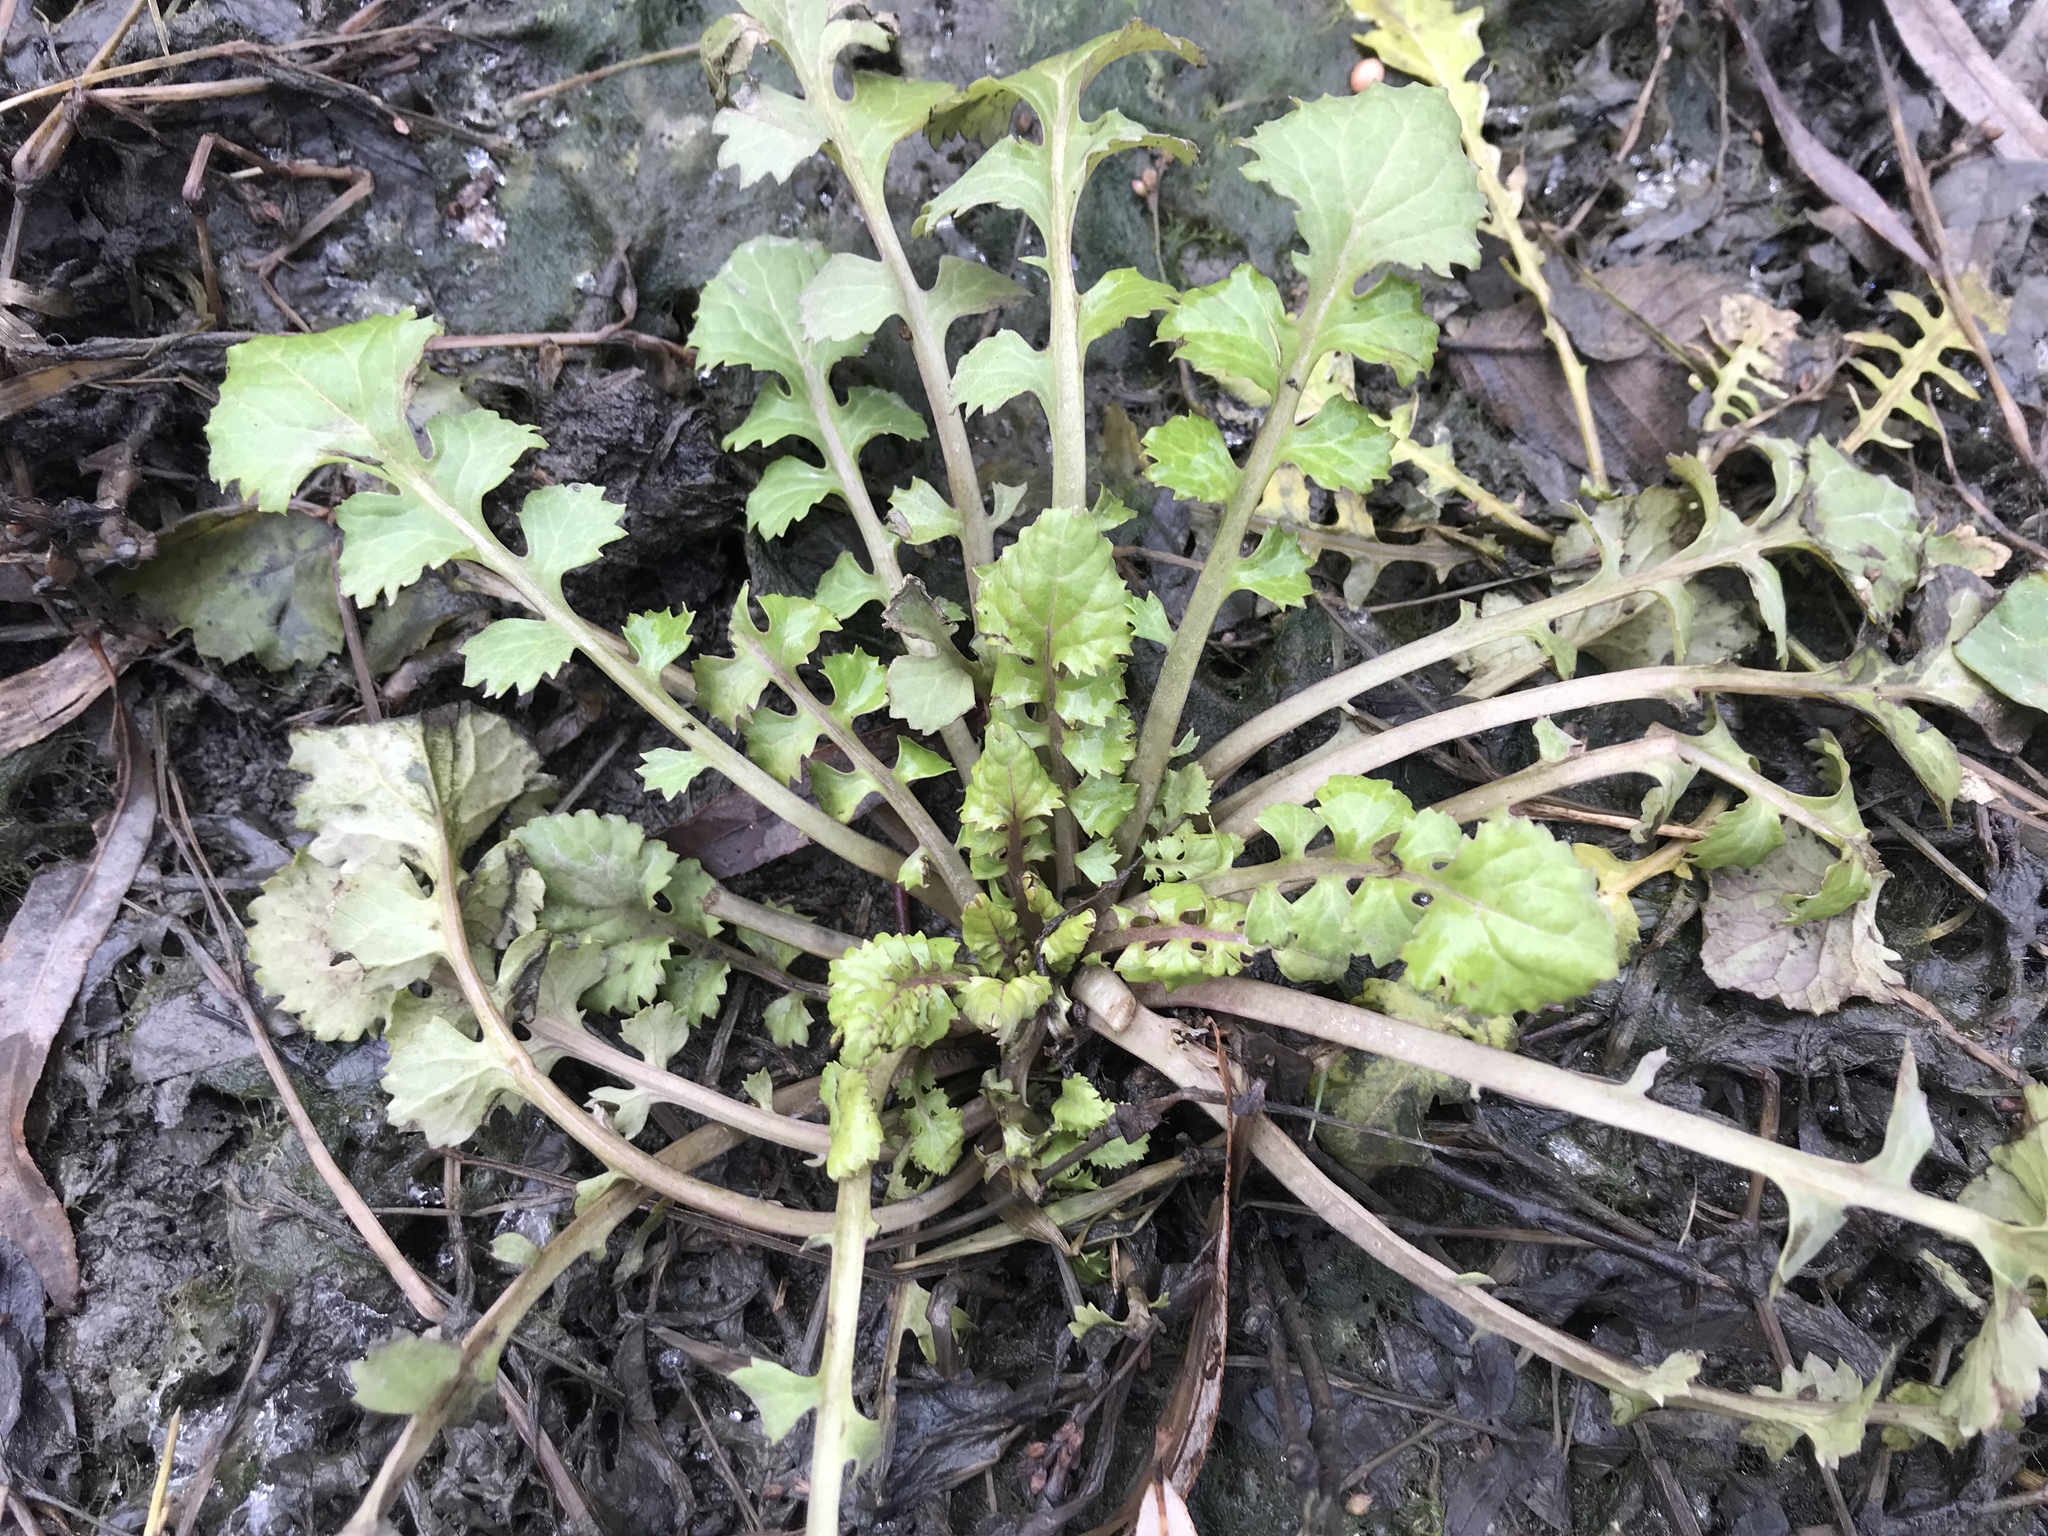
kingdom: Plantae
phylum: Tracheophyta
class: Magnoliopsida
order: Asterales
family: Asteraceae
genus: Packera
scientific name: Packera glabella
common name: Butterweed
